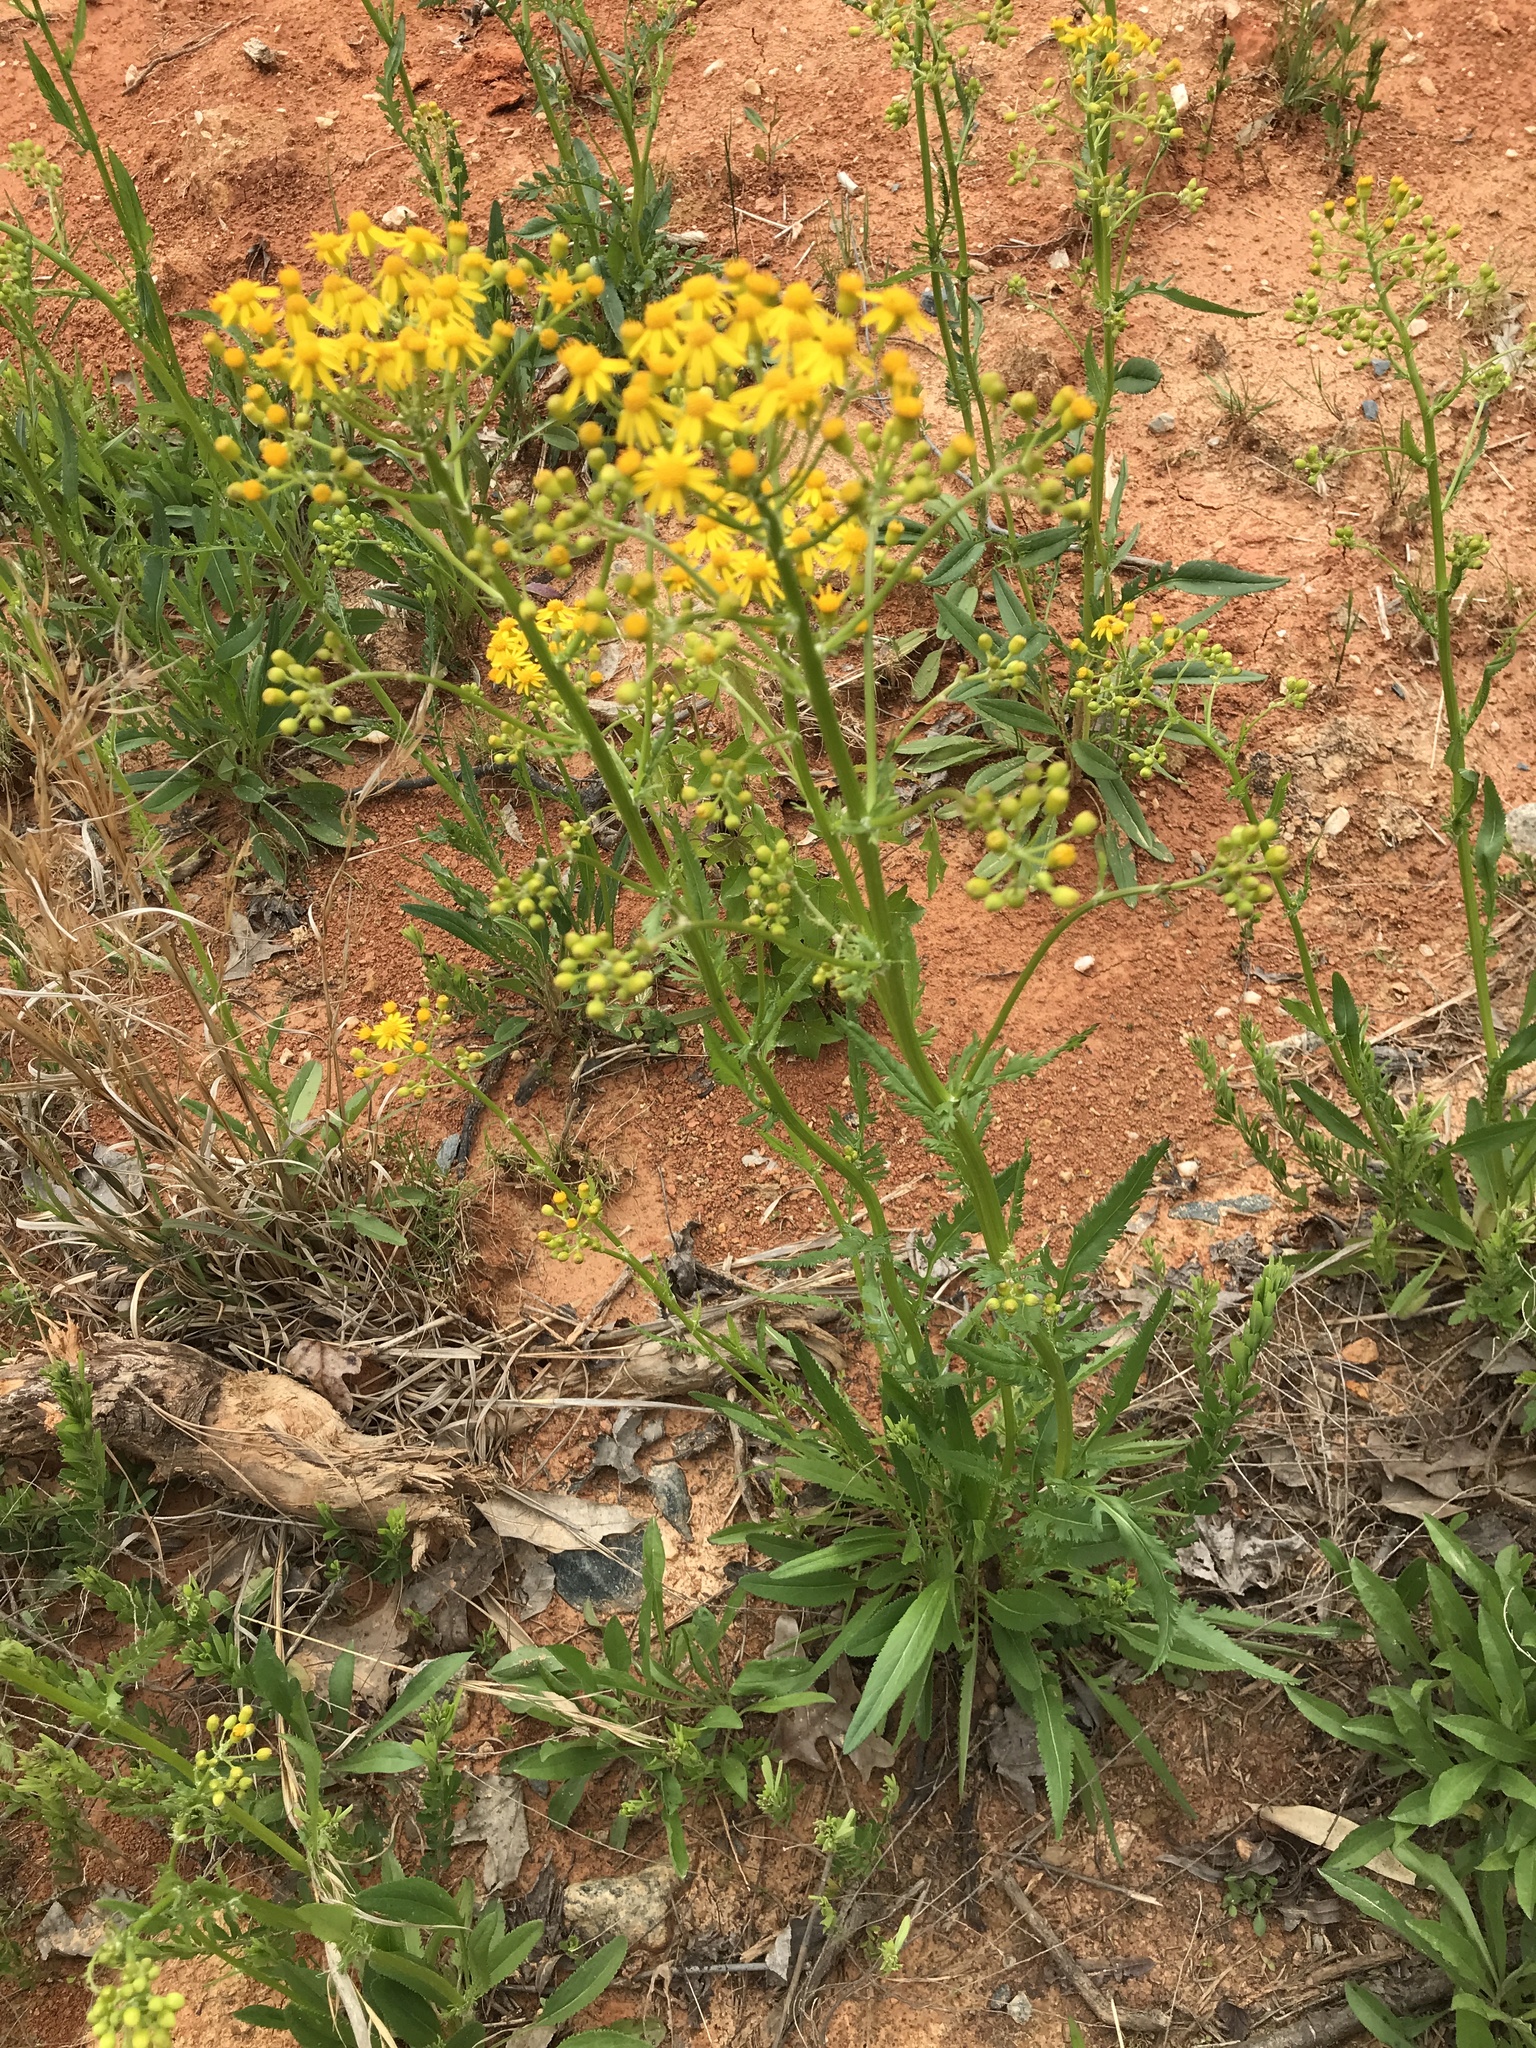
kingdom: Plantae
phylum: Tracheophyta
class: Magnoliopsida
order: Asterales
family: Asteraceae
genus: Packera
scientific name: Packera anonyma
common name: Small ragwort
